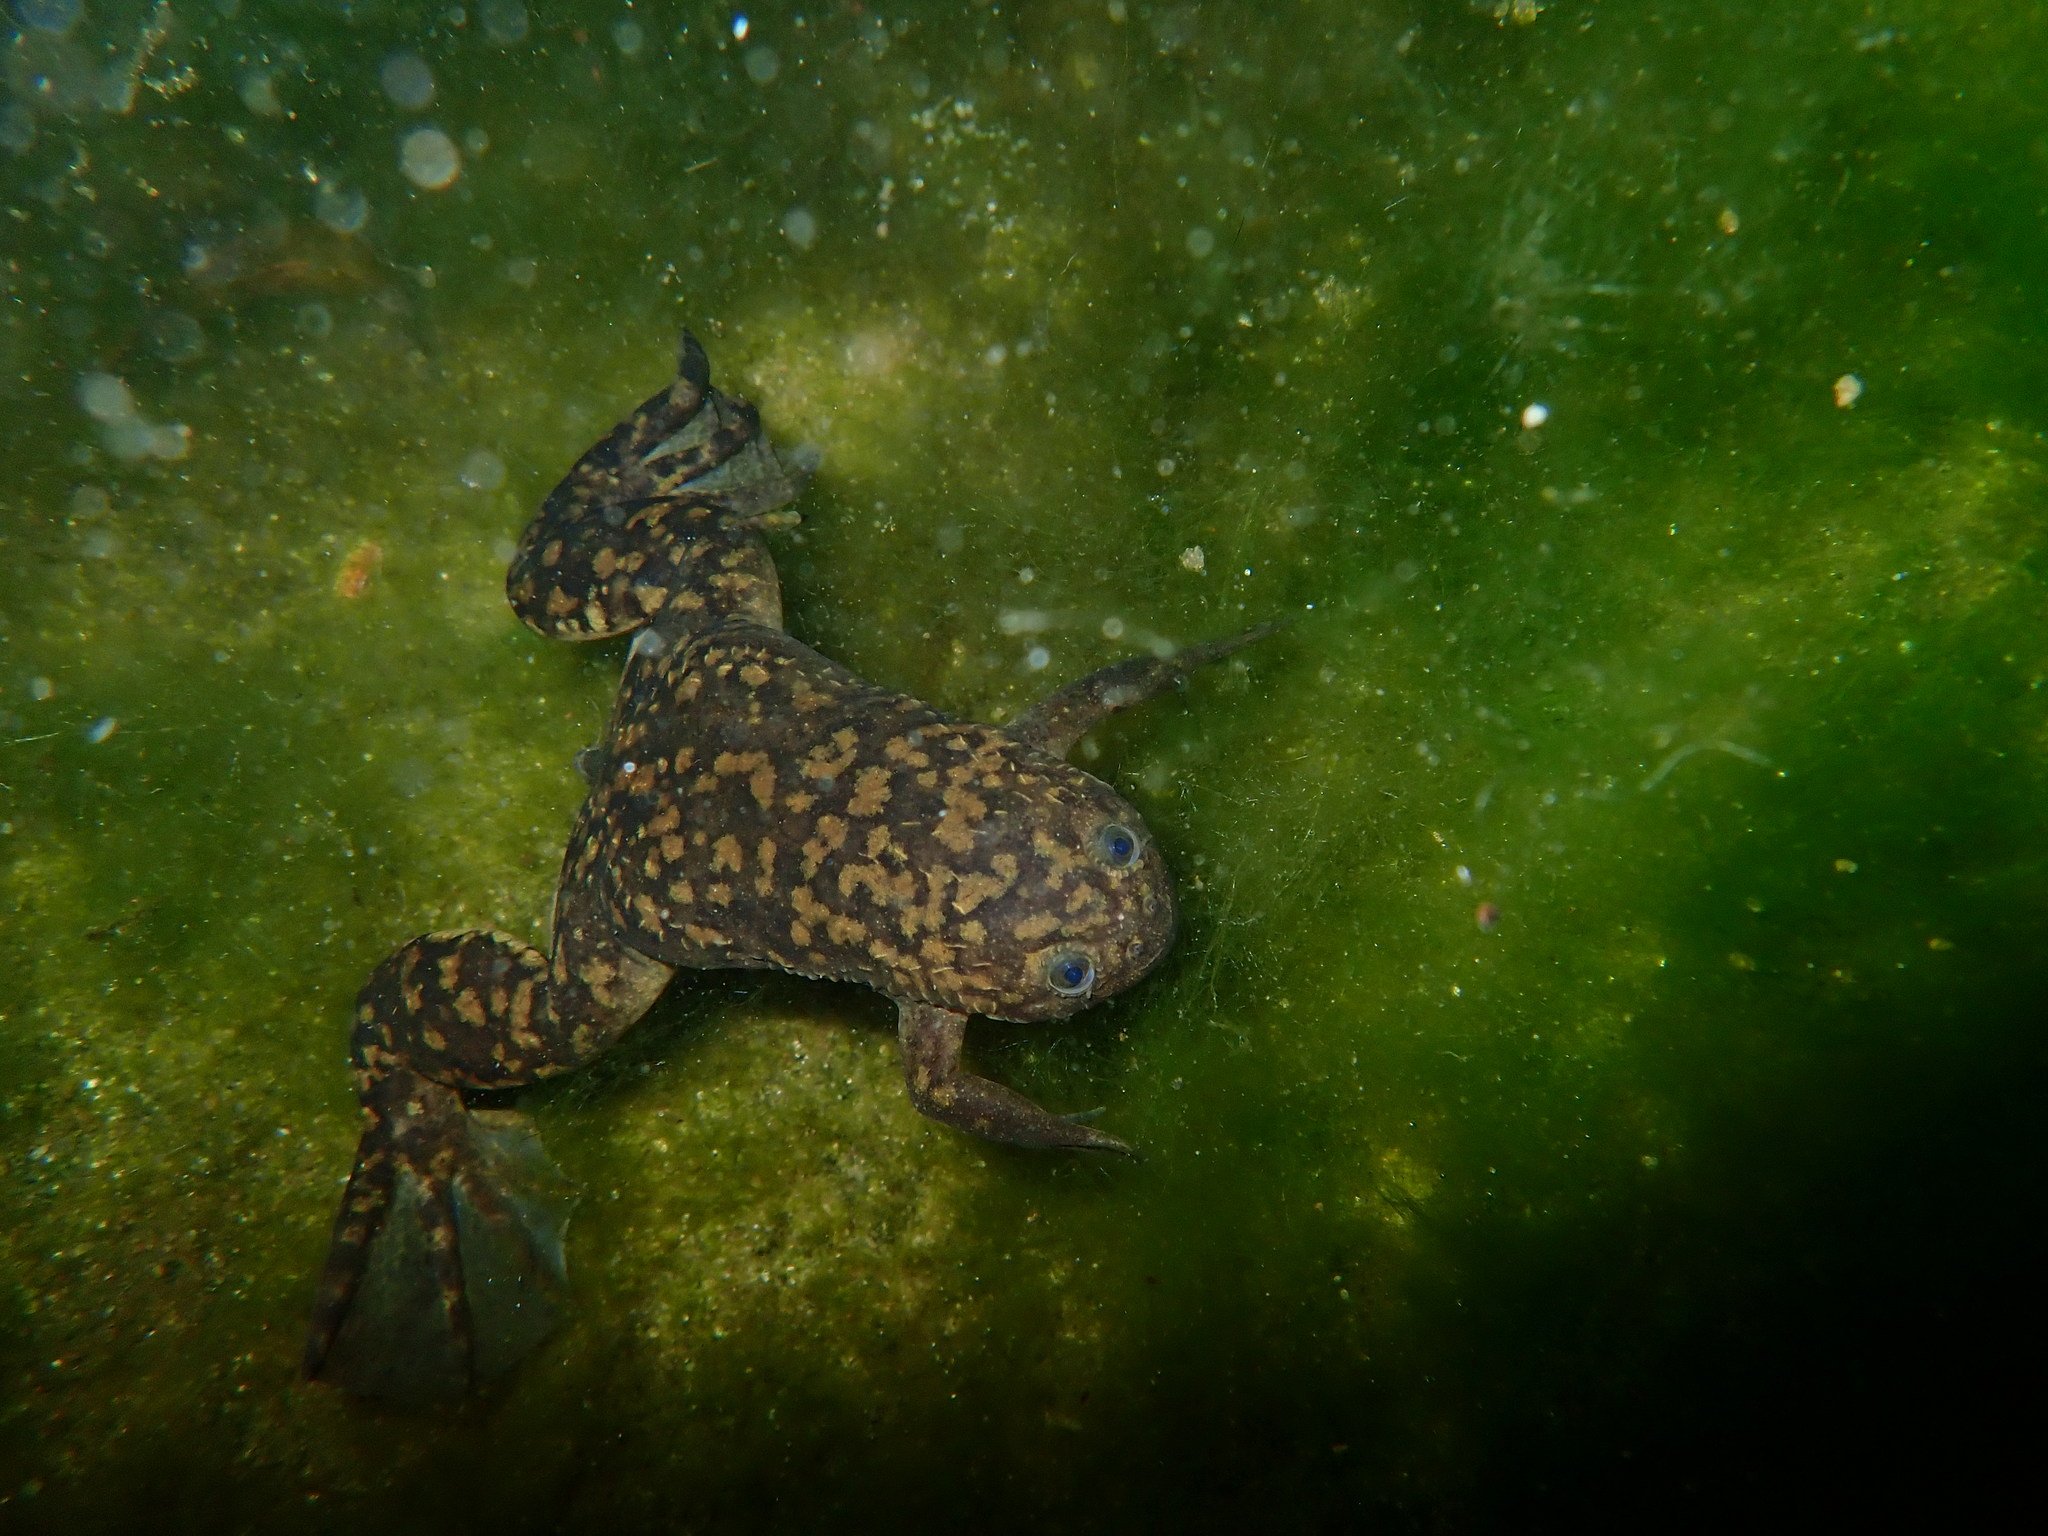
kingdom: Animalia
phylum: Chordata
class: Amphibia
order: Anura
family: Pipidae
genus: Xenopus
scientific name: Xenopus laevis
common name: African clawed frog
